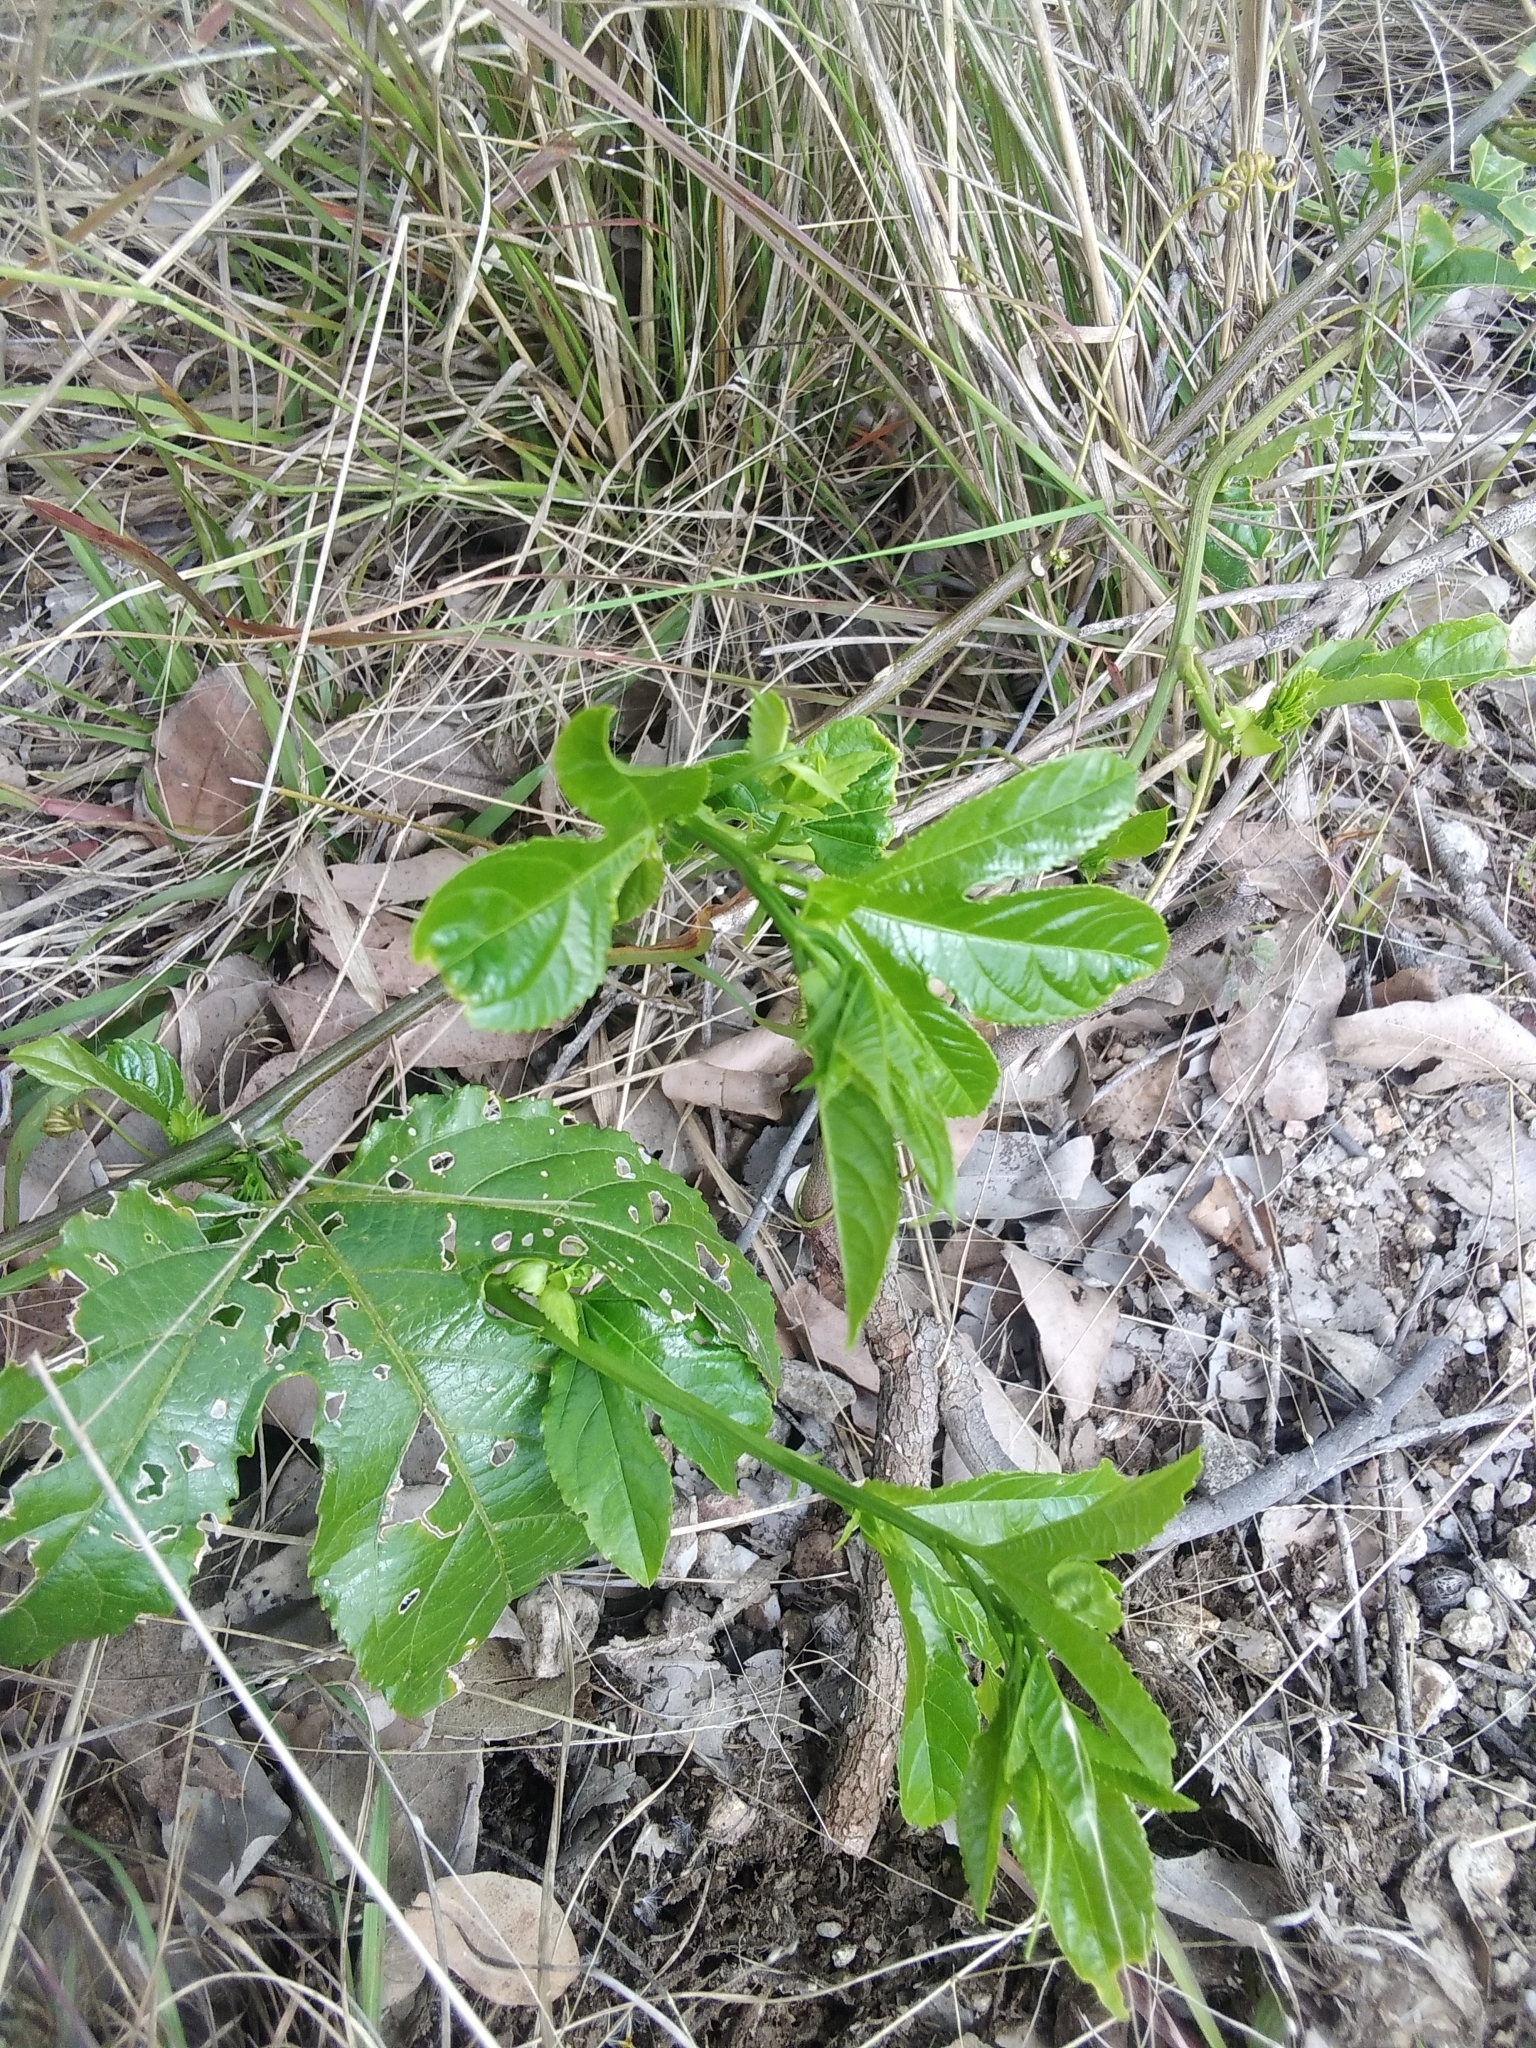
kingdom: Plantae
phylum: Tracheophyta
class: Magnoliopsida
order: Malpighiales
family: Passifloraceae
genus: Passiflora
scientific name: Passiflora edulis
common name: Purple granadilla
